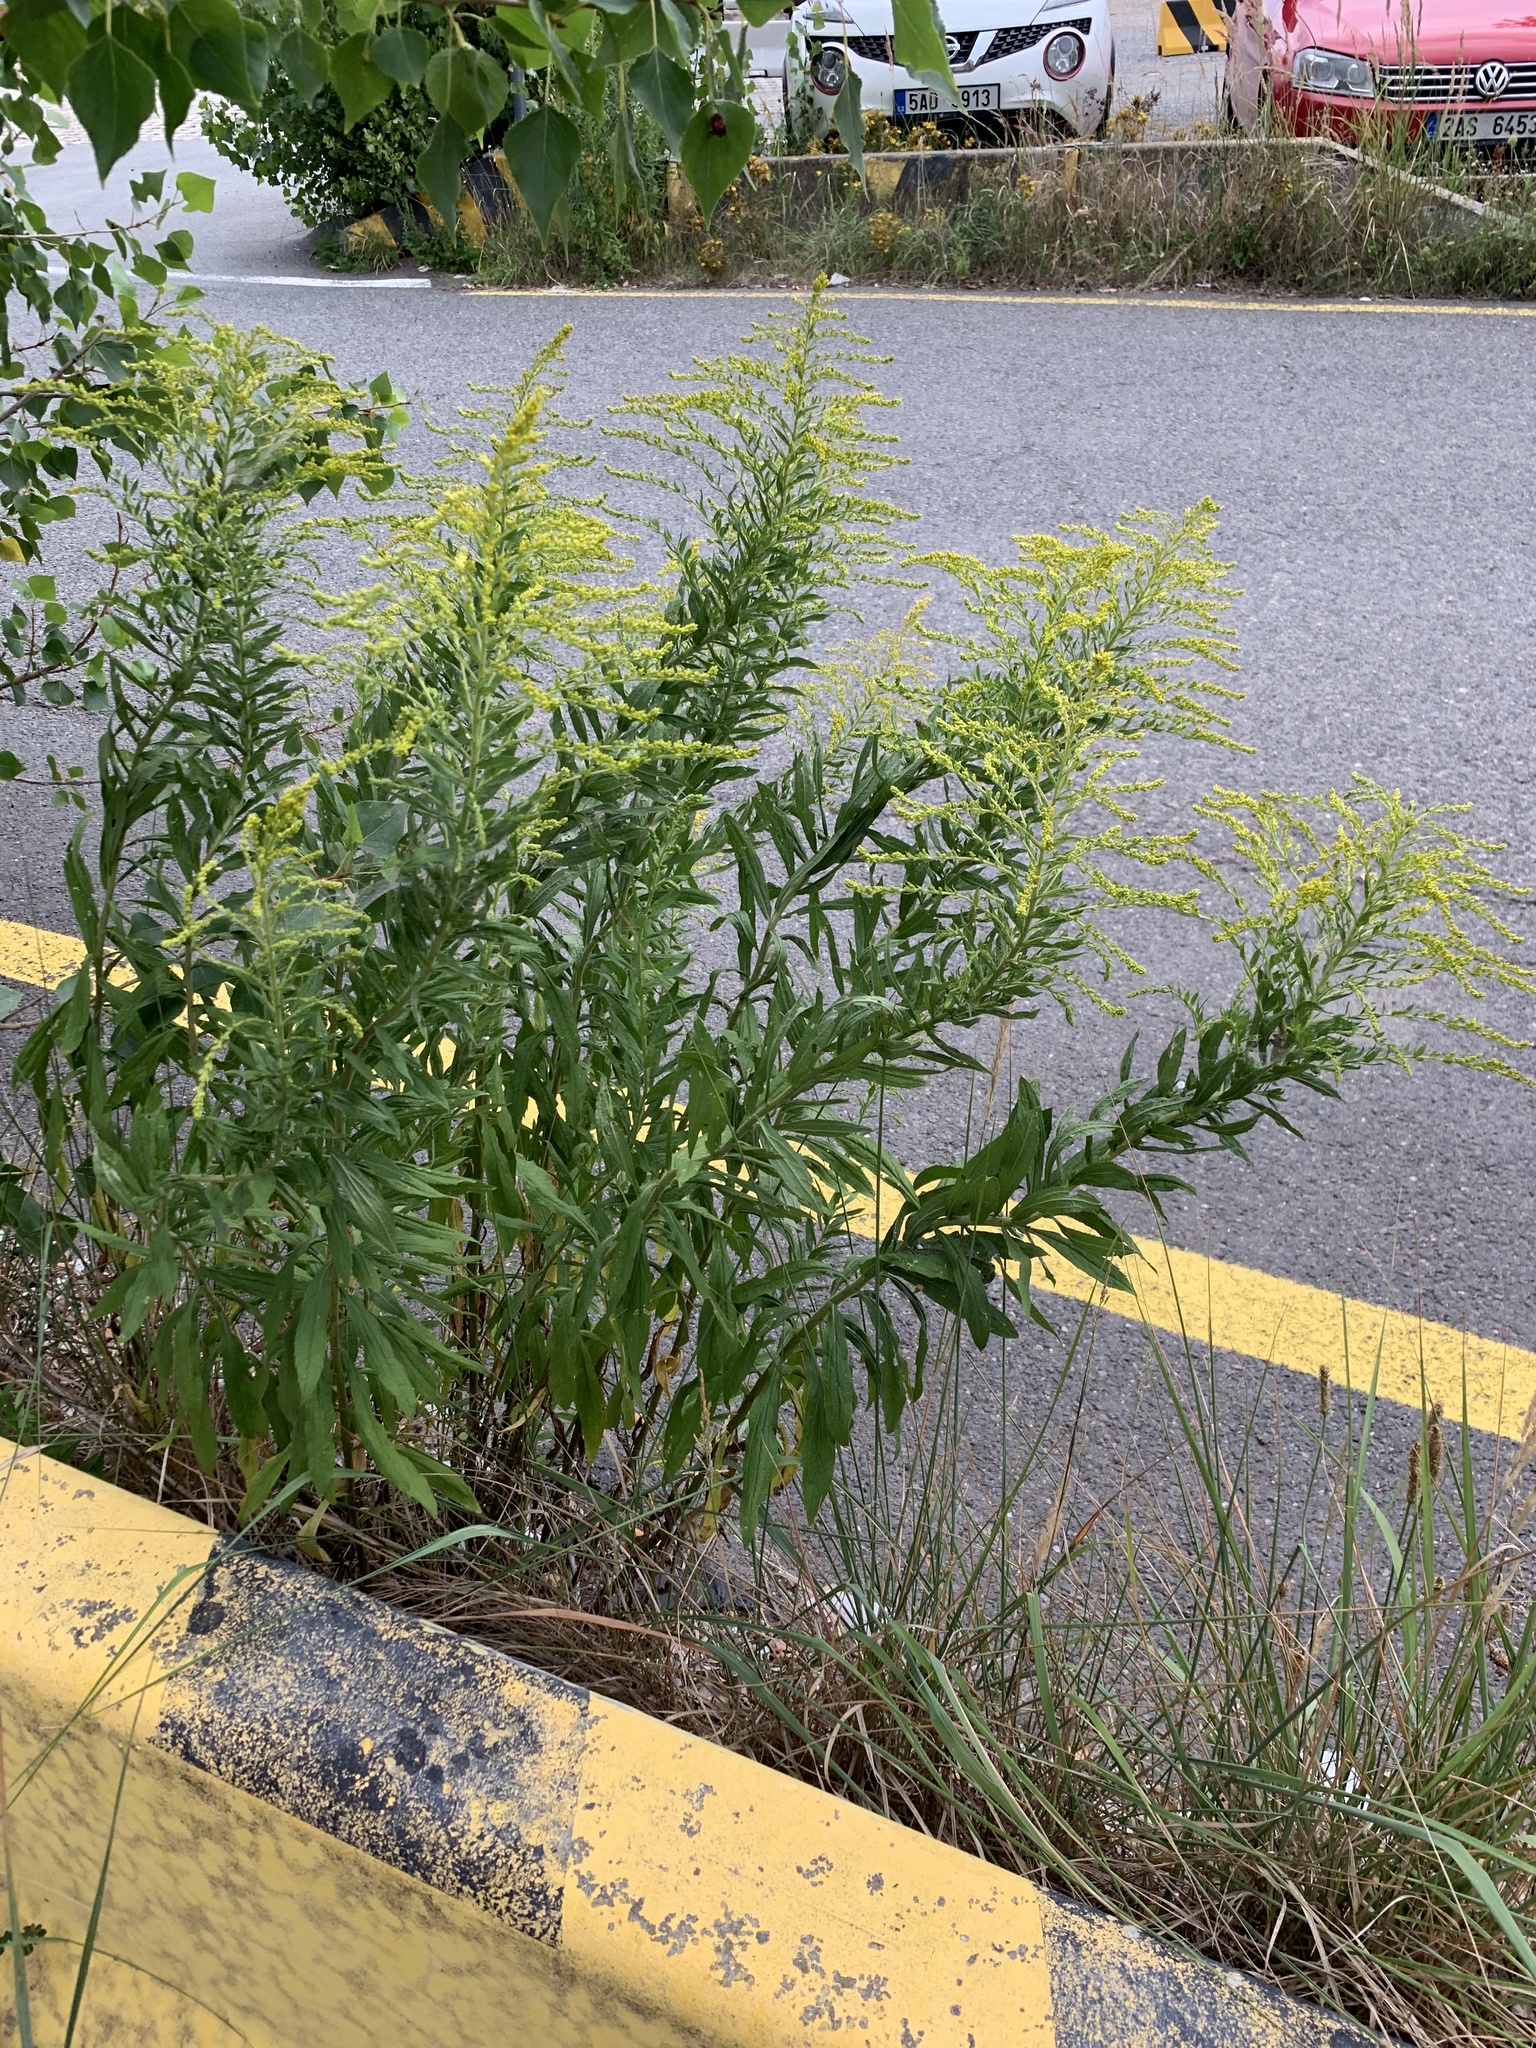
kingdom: Plantae
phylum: Tracheophyta
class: Magnoliopsida
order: Asterales
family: Asteraceae
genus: Solidago
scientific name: Solidago canadensis
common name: Canada goldenrod
